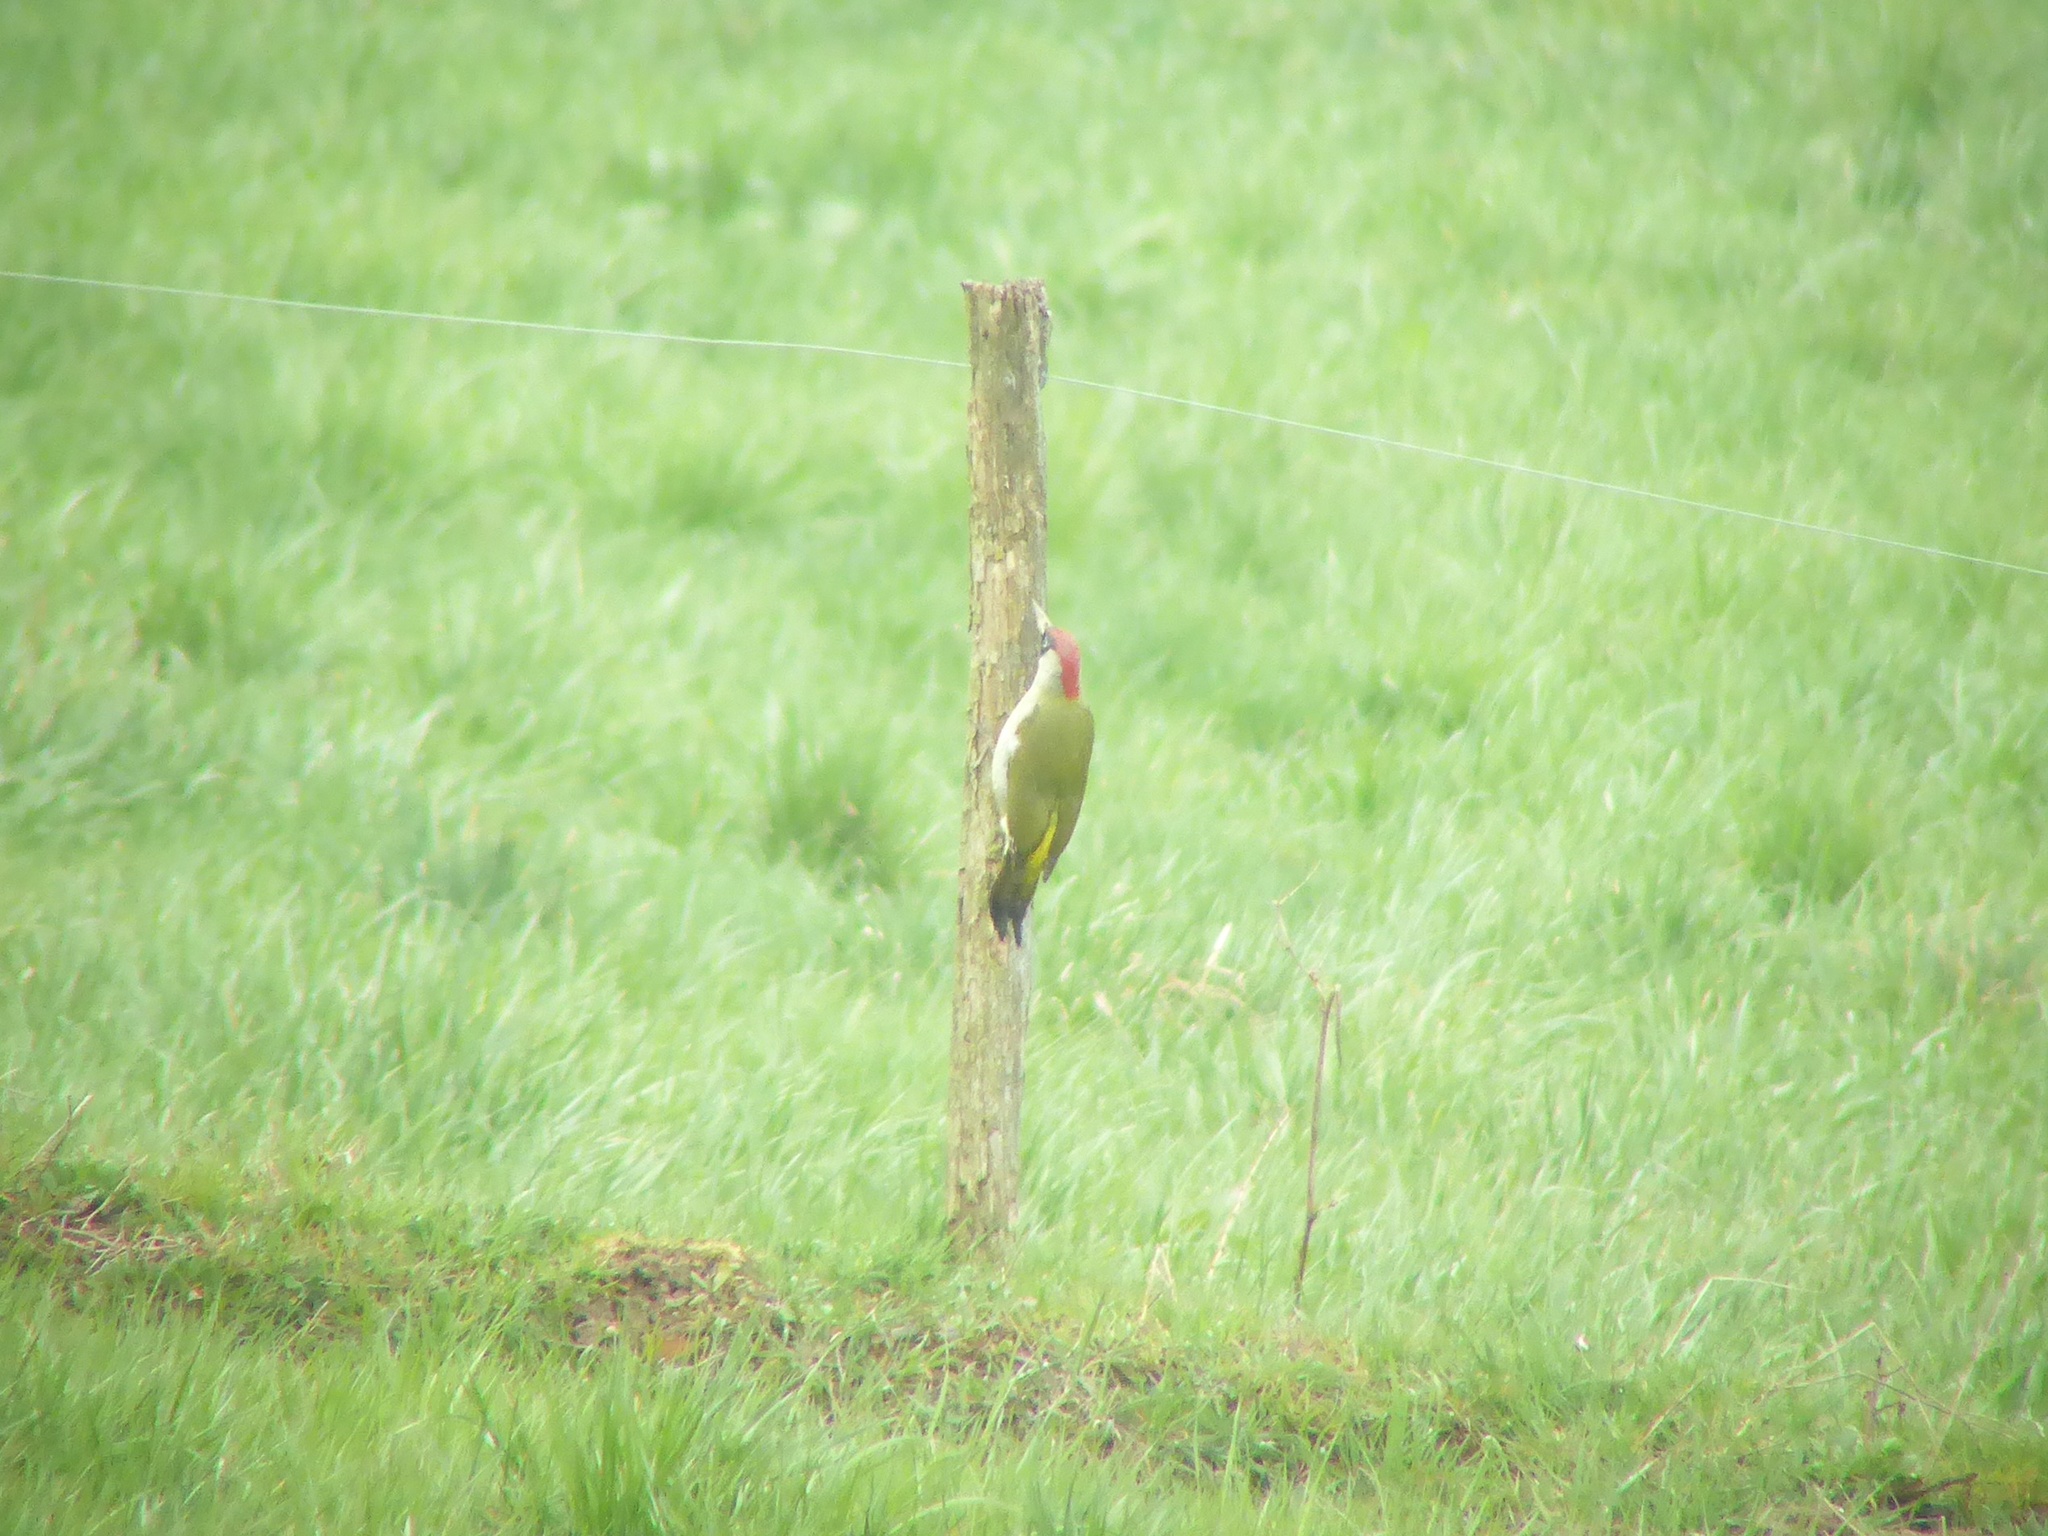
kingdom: Animalia
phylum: Chordata
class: Aves
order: Piciformes
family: Picidae
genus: Picus
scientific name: Picus viridis
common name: European green woodpecker
